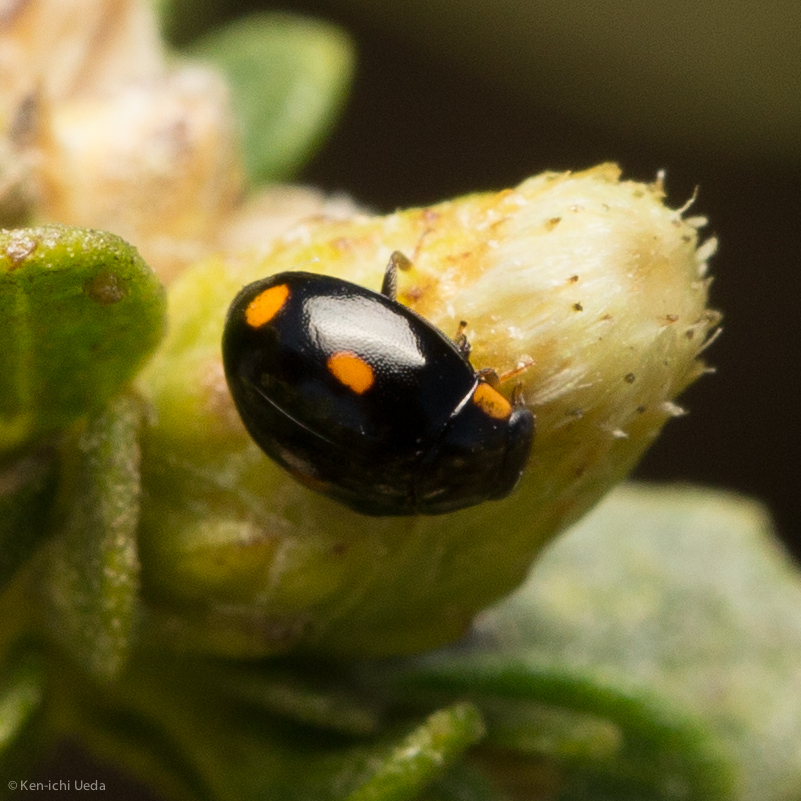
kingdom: Animalia
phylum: Arthropoda
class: Insecta
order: Coleoptera
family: Coccinellidae
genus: Hyperaspis
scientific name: Hyperaspis quadrioculata
